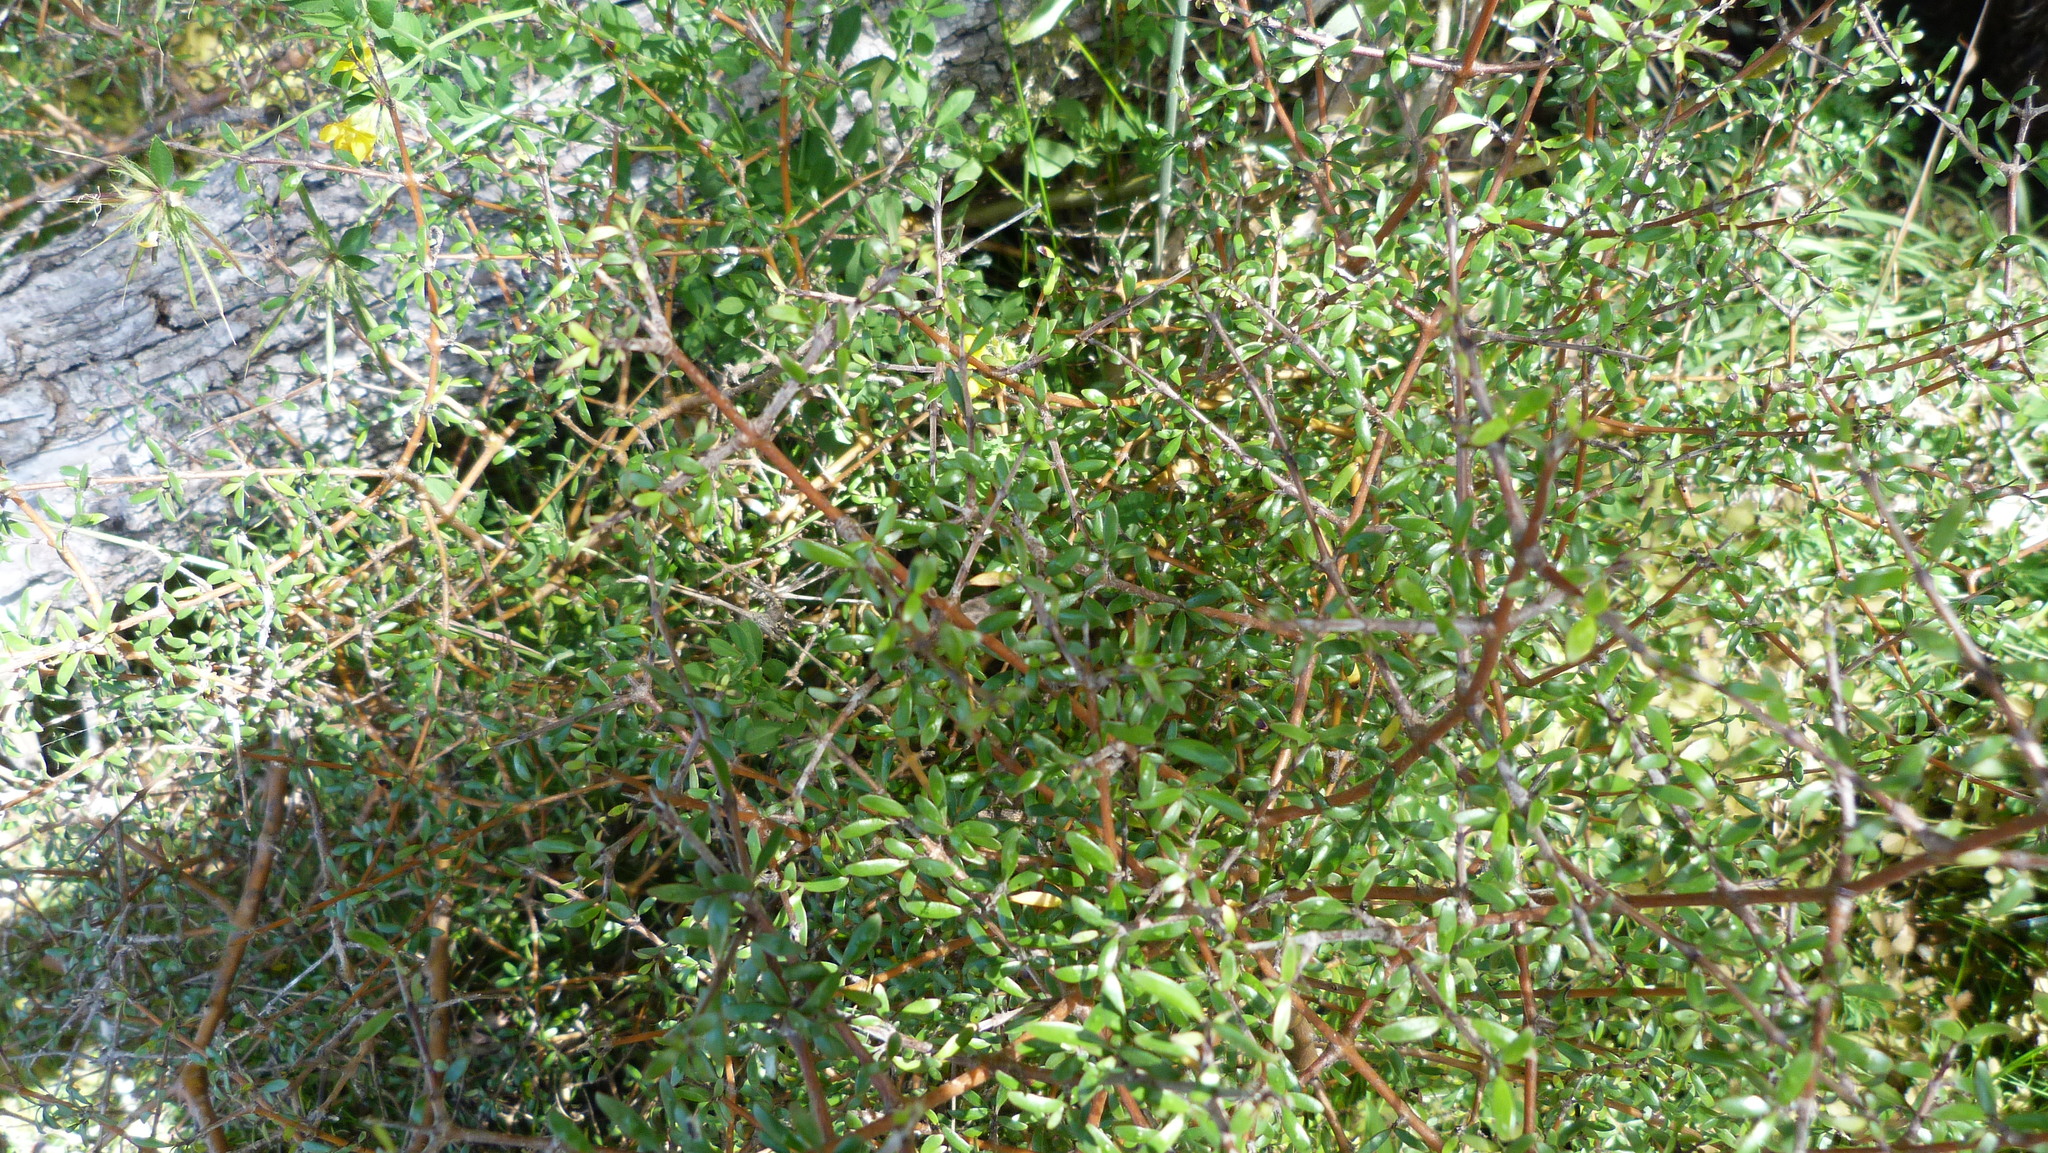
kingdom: Plantae
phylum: Tracheophyta
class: Magnoliopsida
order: Gentianales
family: Rubiaceae
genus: Coprosma
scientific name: Coprosma propinqua
